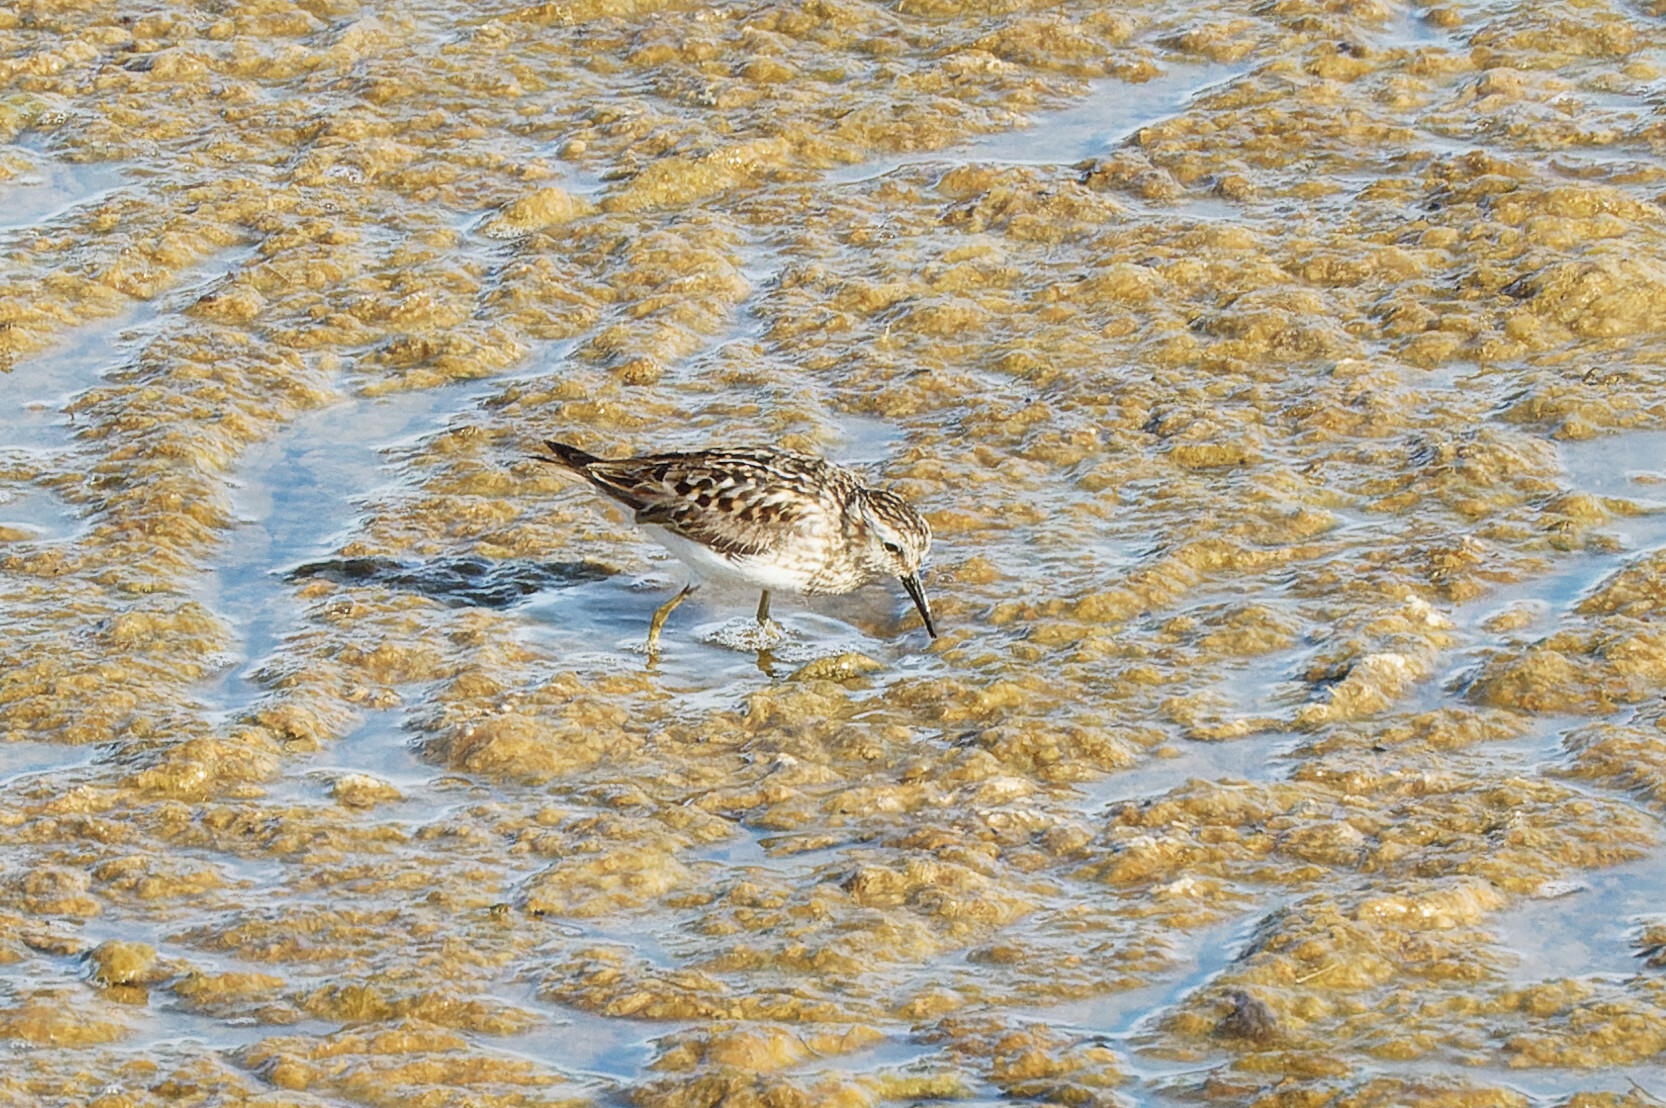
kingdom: Animalia
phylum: Chordata
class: Aves
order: Charadriiformes
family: Scolopacidae
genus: Calidris
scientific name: Calidris minutilla
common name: Least sandpiper
